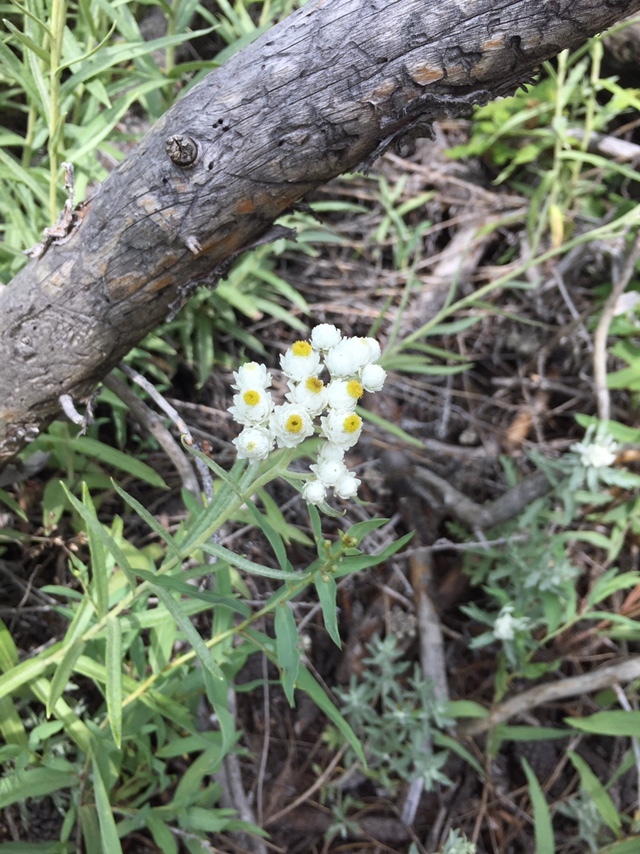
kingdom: Plantae
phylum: Tracheophyta
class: Magnoliopsida
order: Asterales
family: Asteraceae
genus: Anaphalis
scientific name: Anaphalis margaritacea
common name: Pearly everlasting
